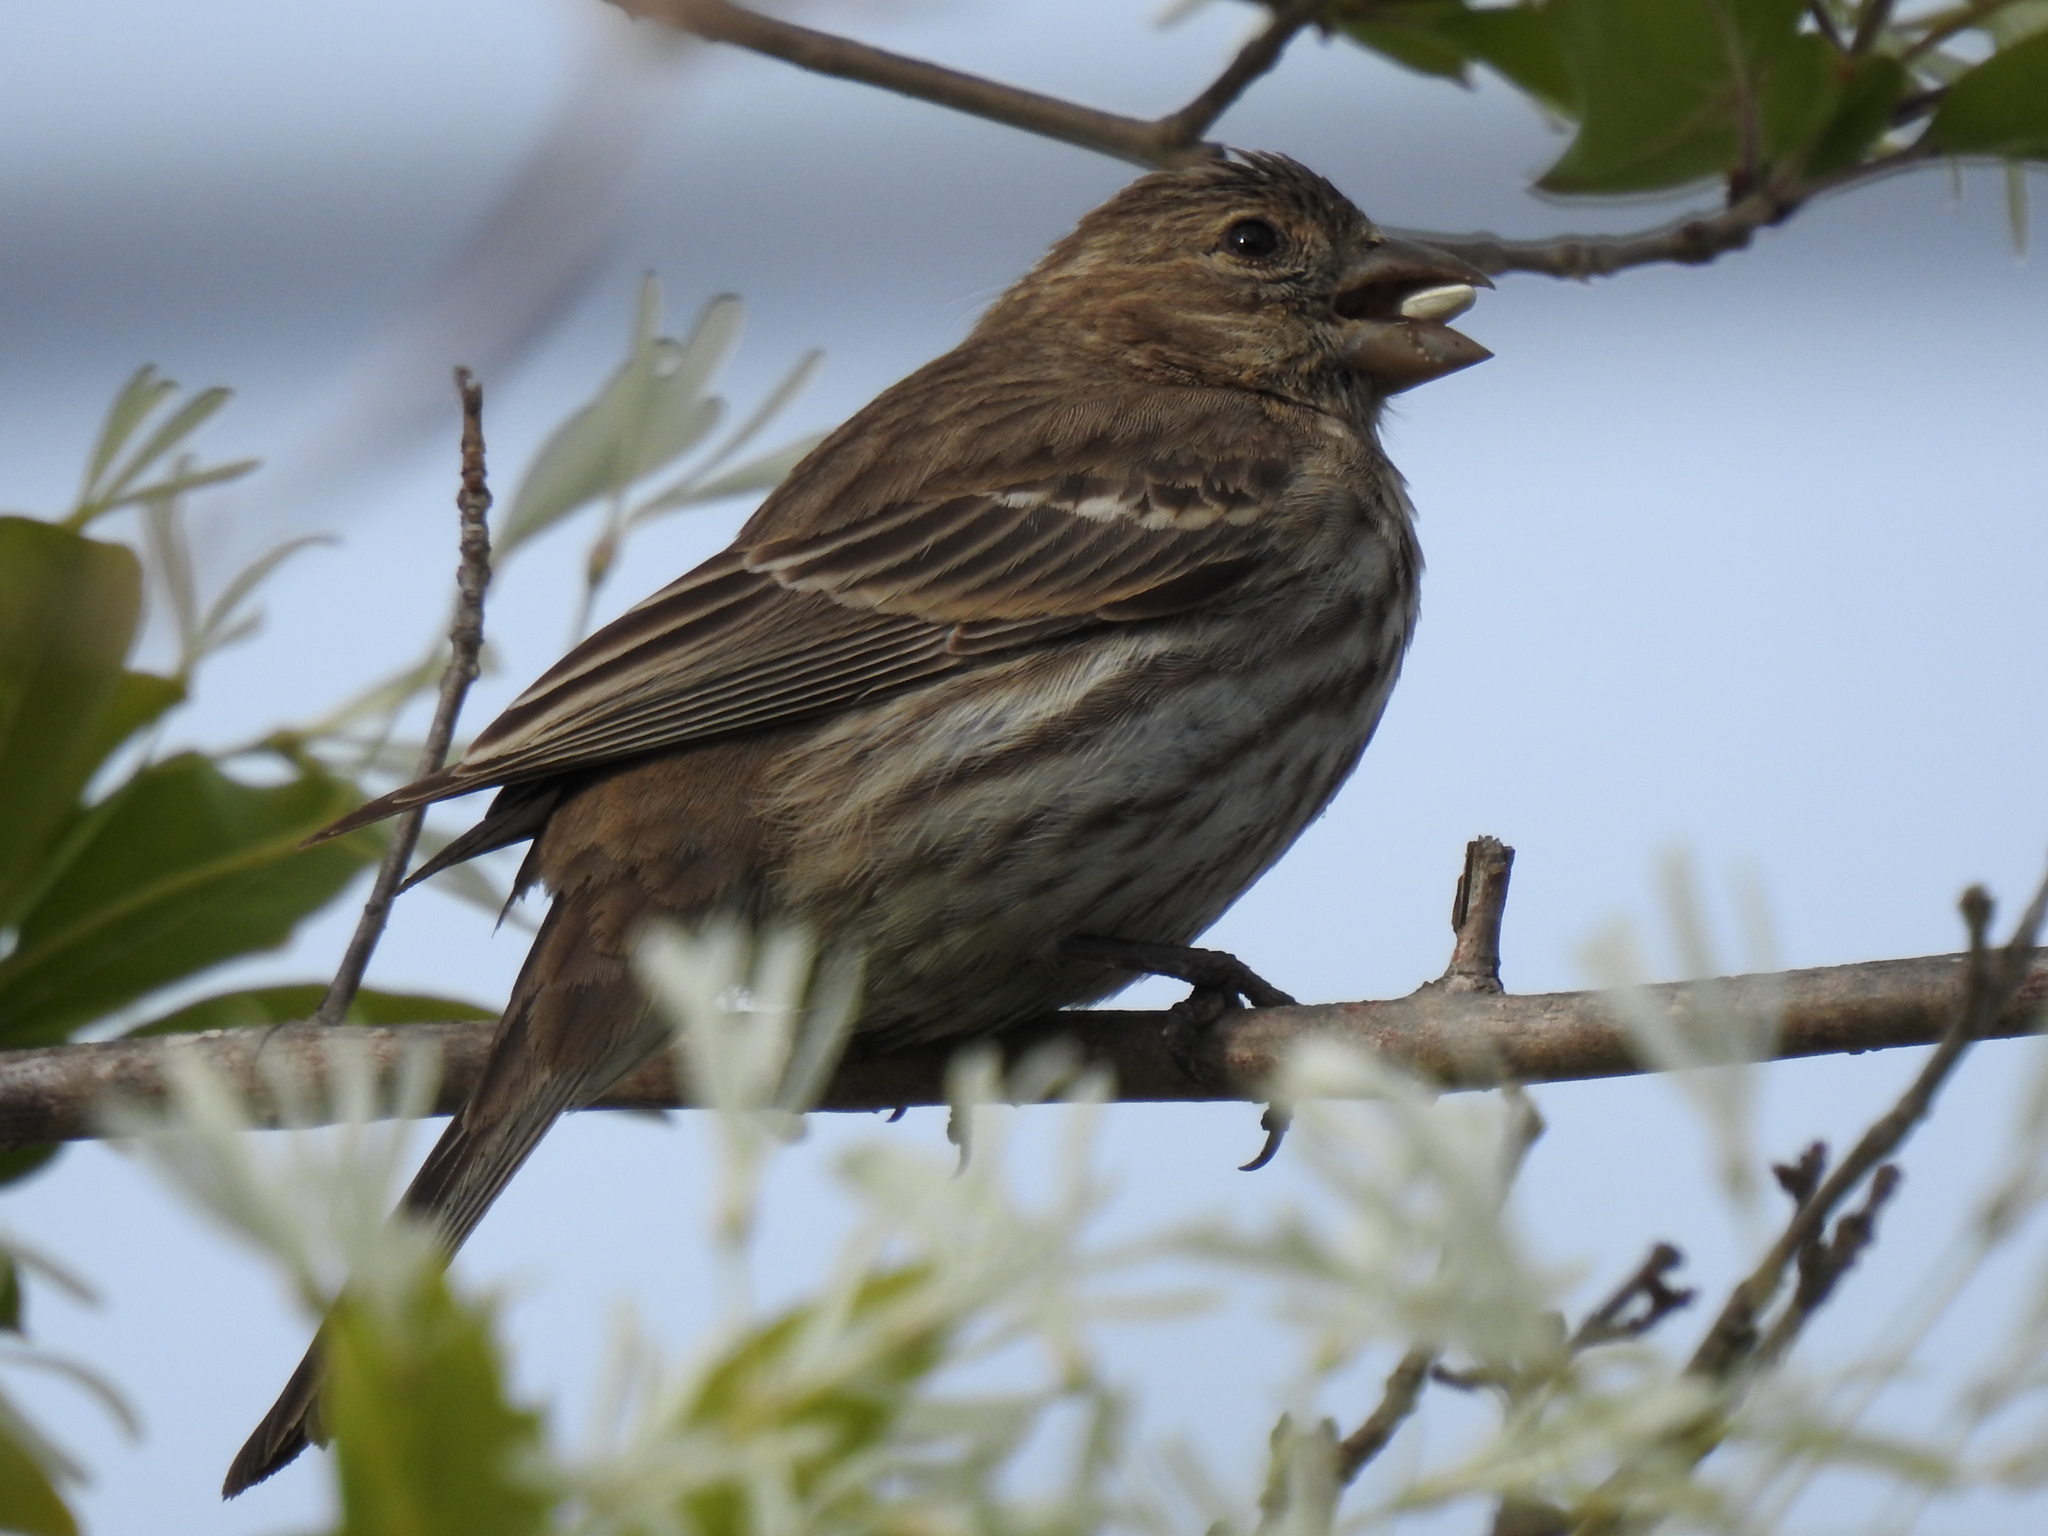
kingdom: Animalia
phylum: Chordata
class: Aves
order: Passeriformes
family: Fringillidae
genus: Haemorhous
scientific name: Haemorhous mexicanus
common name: House finch
